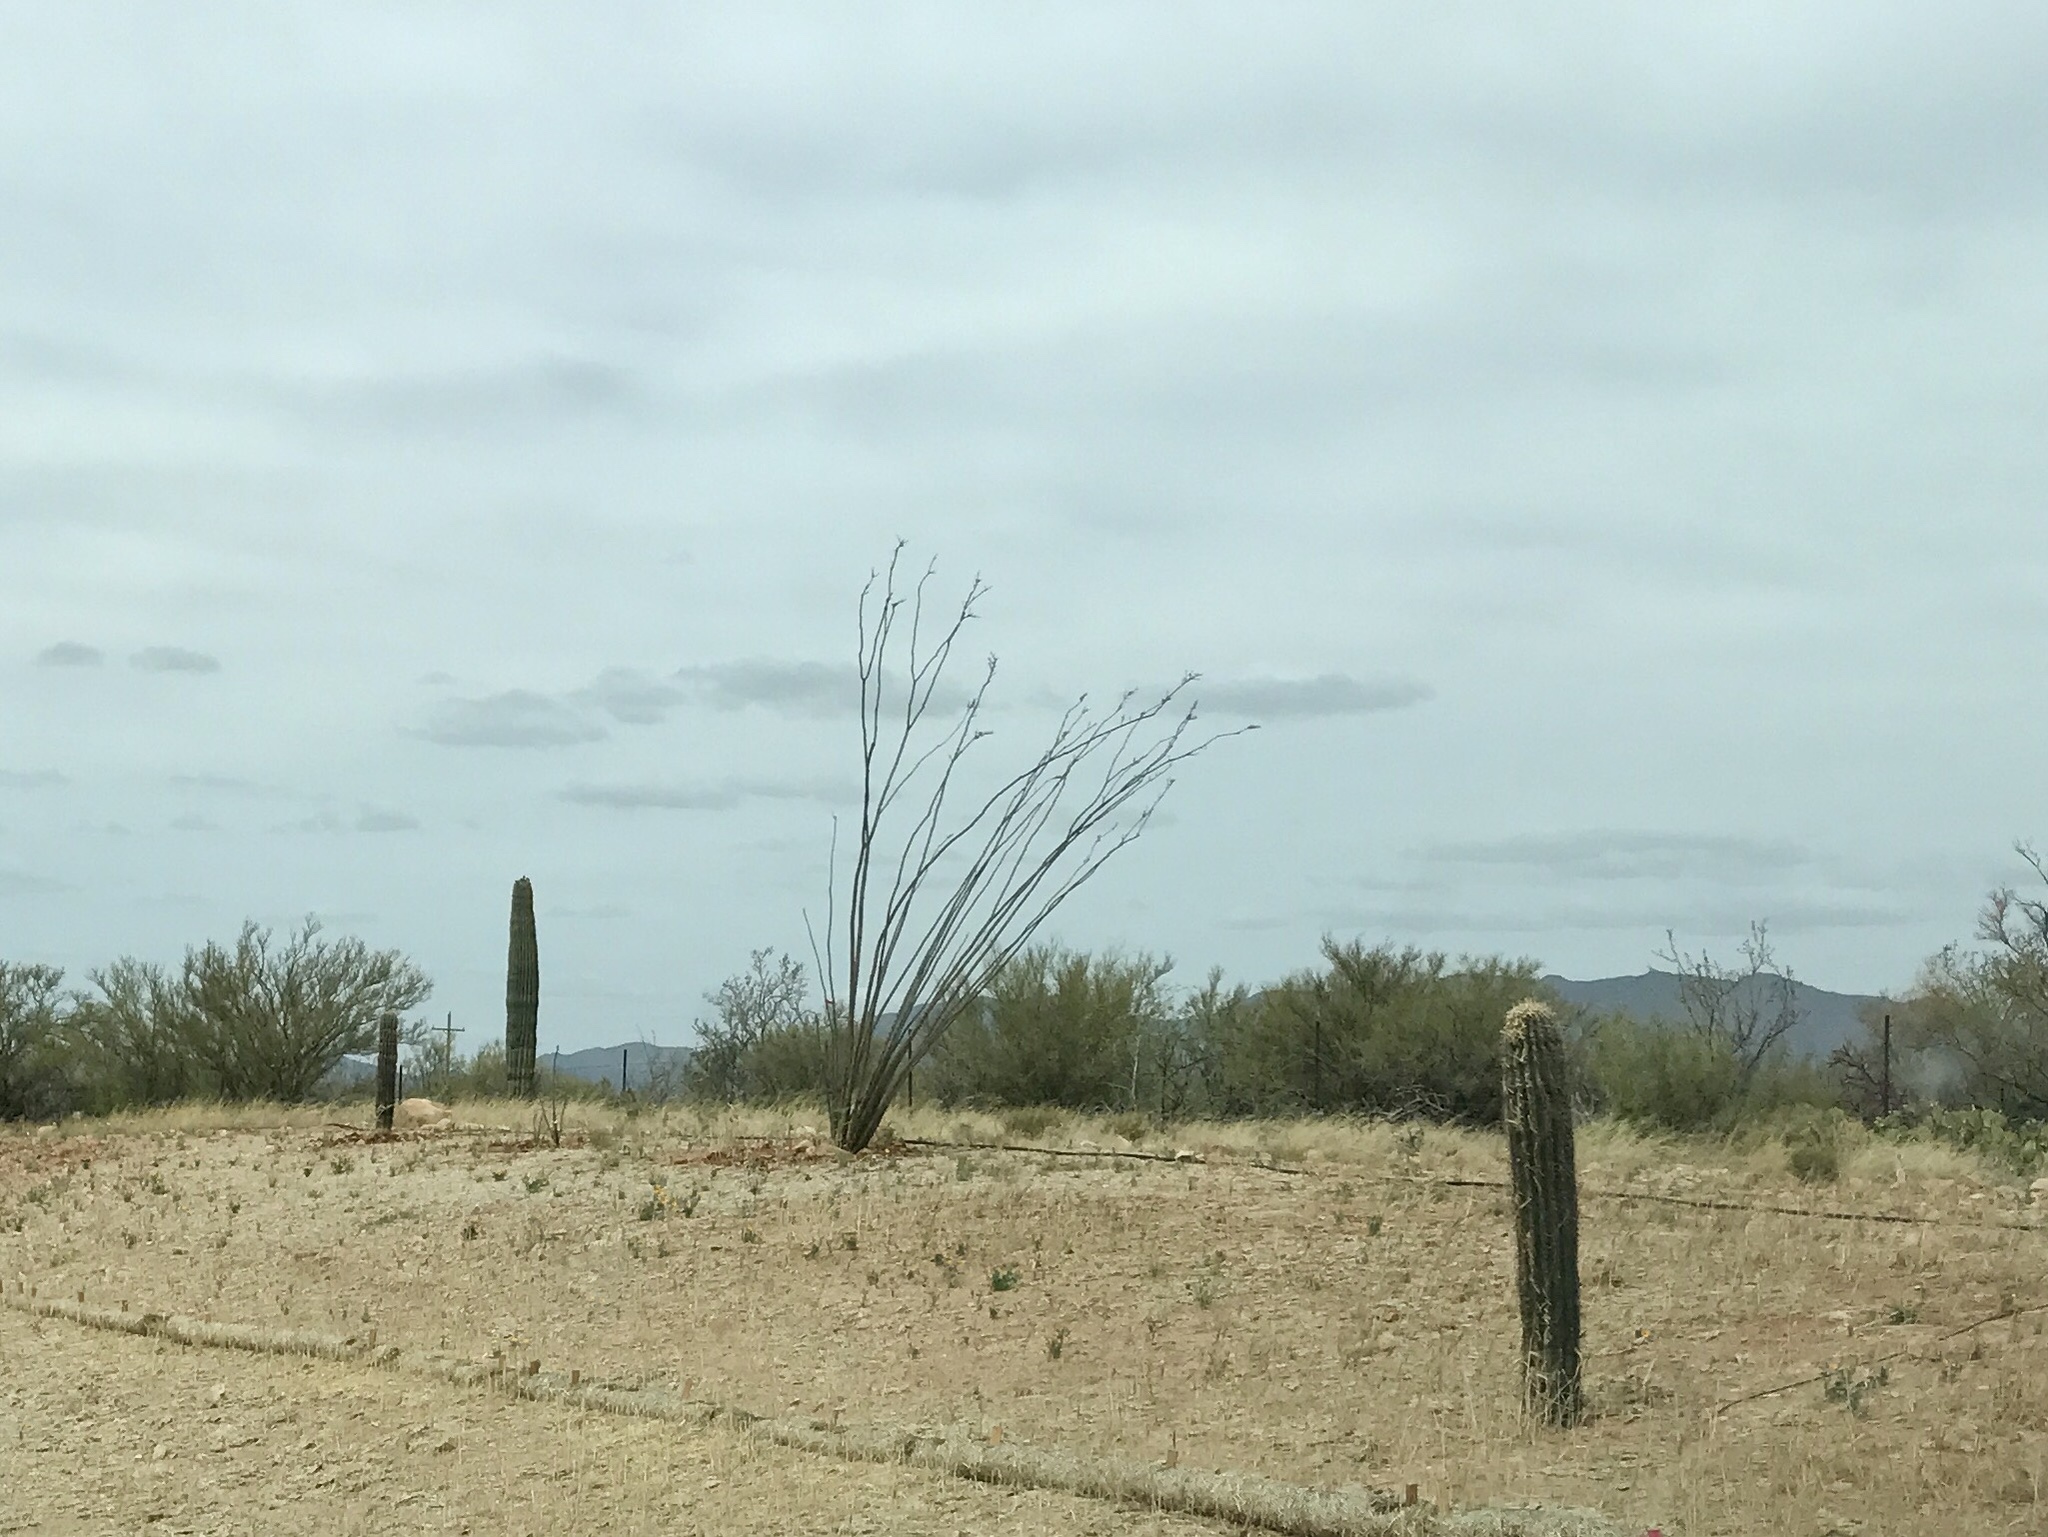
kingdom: Plantae
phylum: Tracheophyta
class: Magnoliopsida
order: Caryophyllales
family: Cactaceae
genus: Carnegiea
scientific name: Carnegiea gigantea
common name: Saguaro
